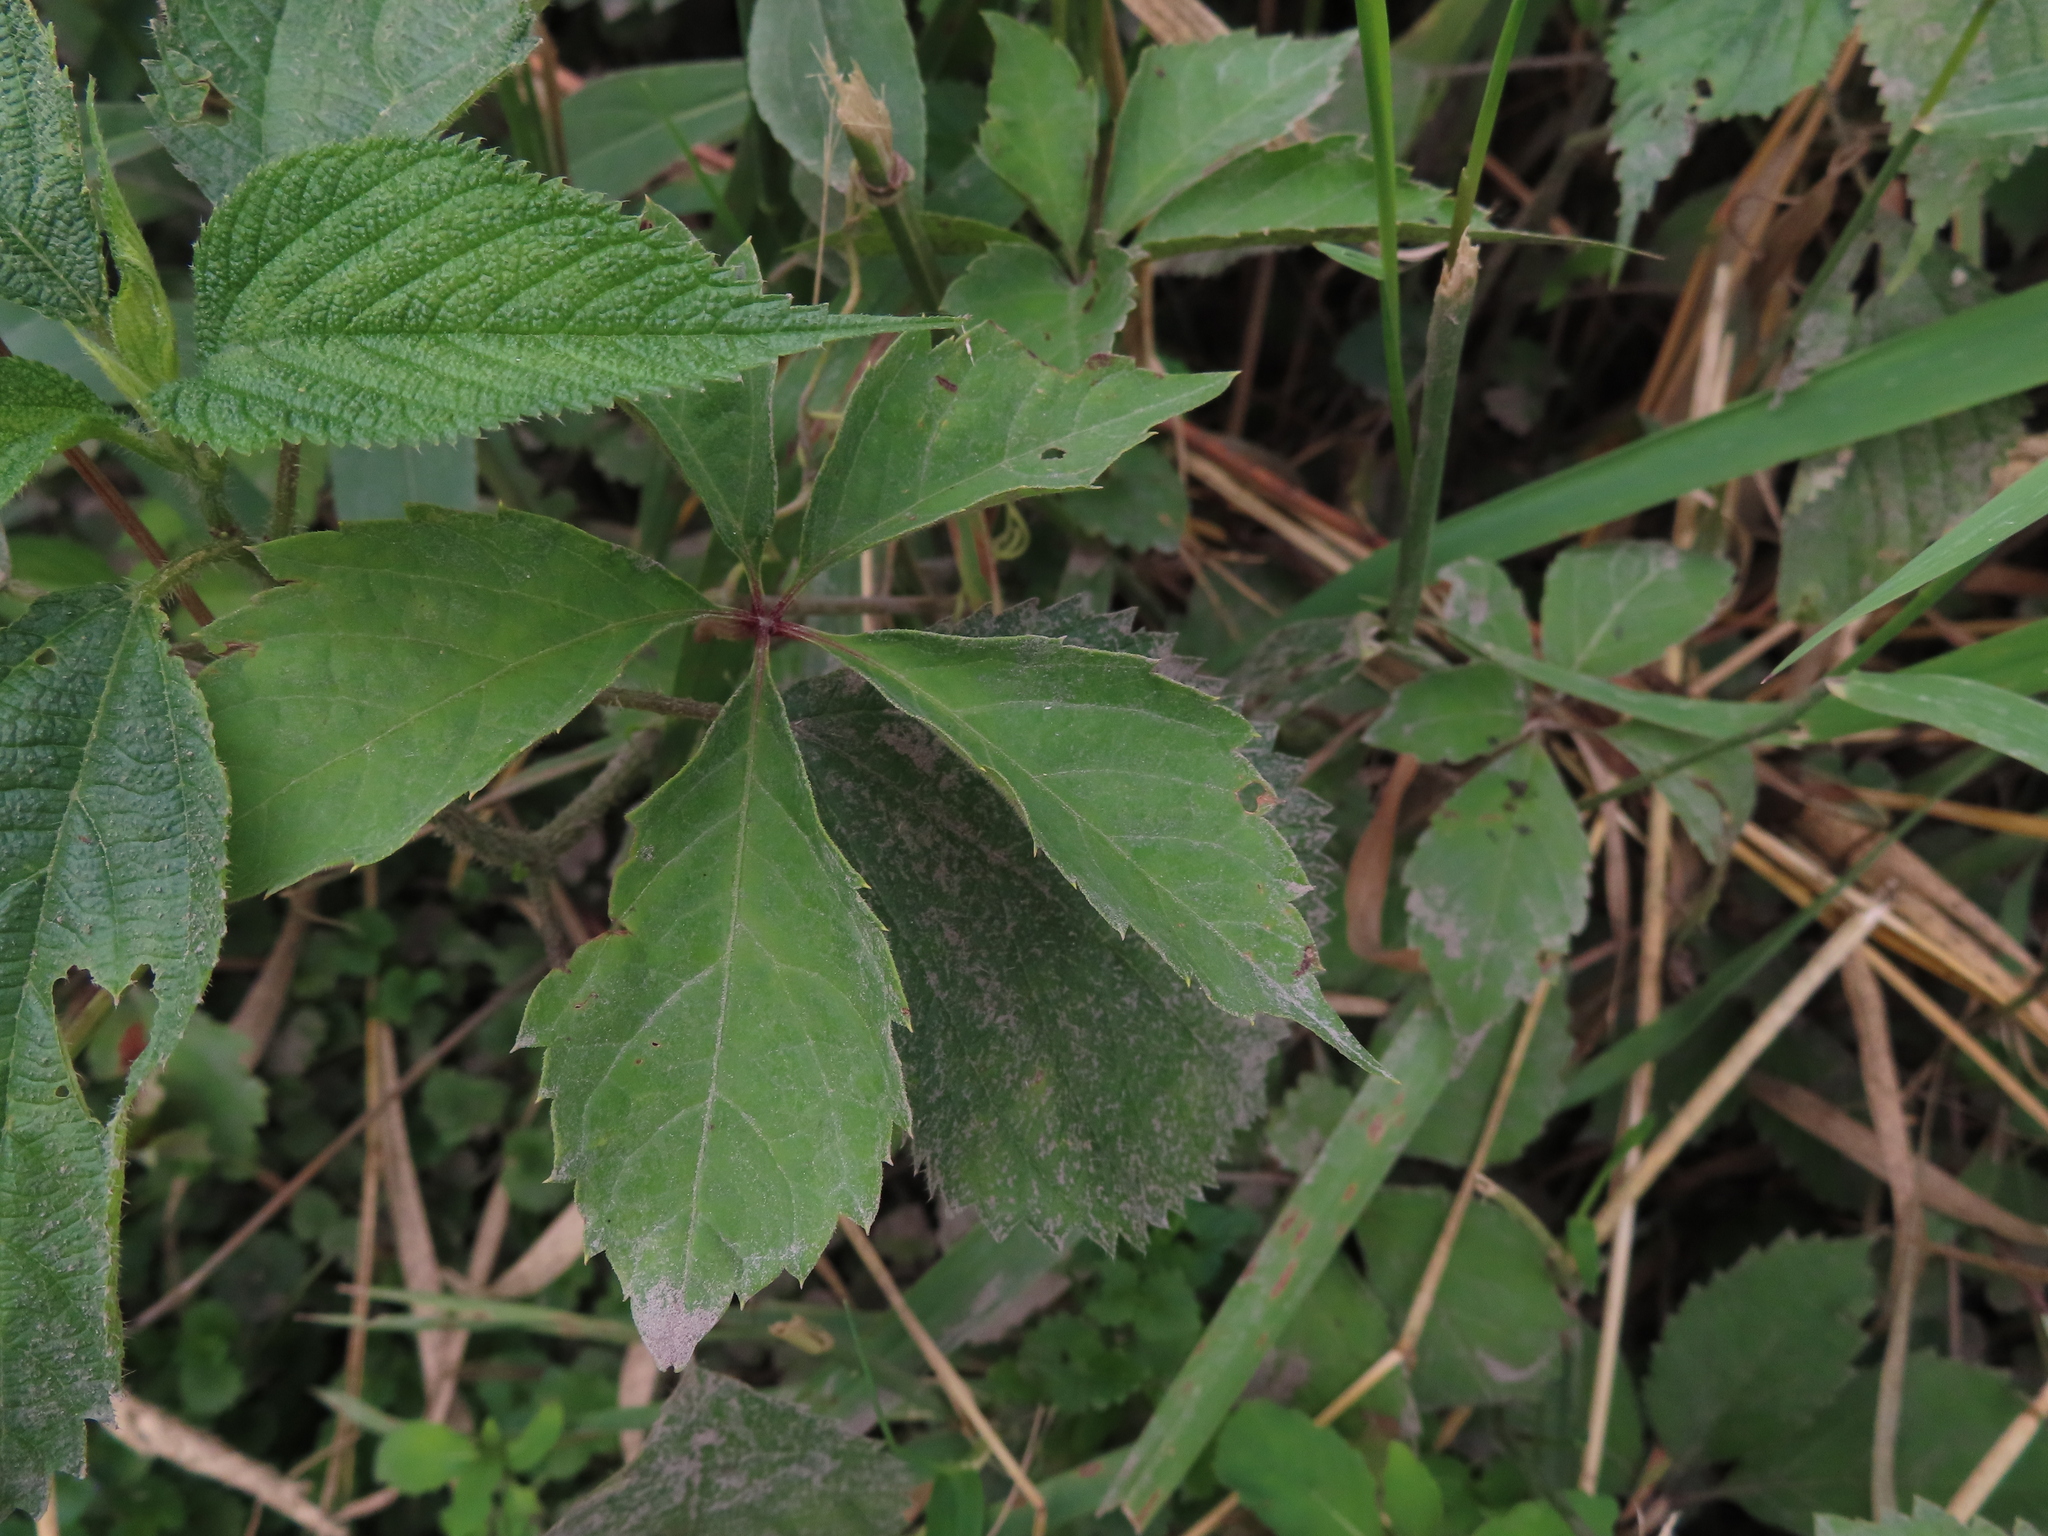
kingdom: Plantae
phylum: Tracheophyta
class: Magnoliopsida
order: Vitales
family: Vitaceae
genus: Parthenocissus
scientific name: Parthenocissus inserta
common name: False virginia-creeper
